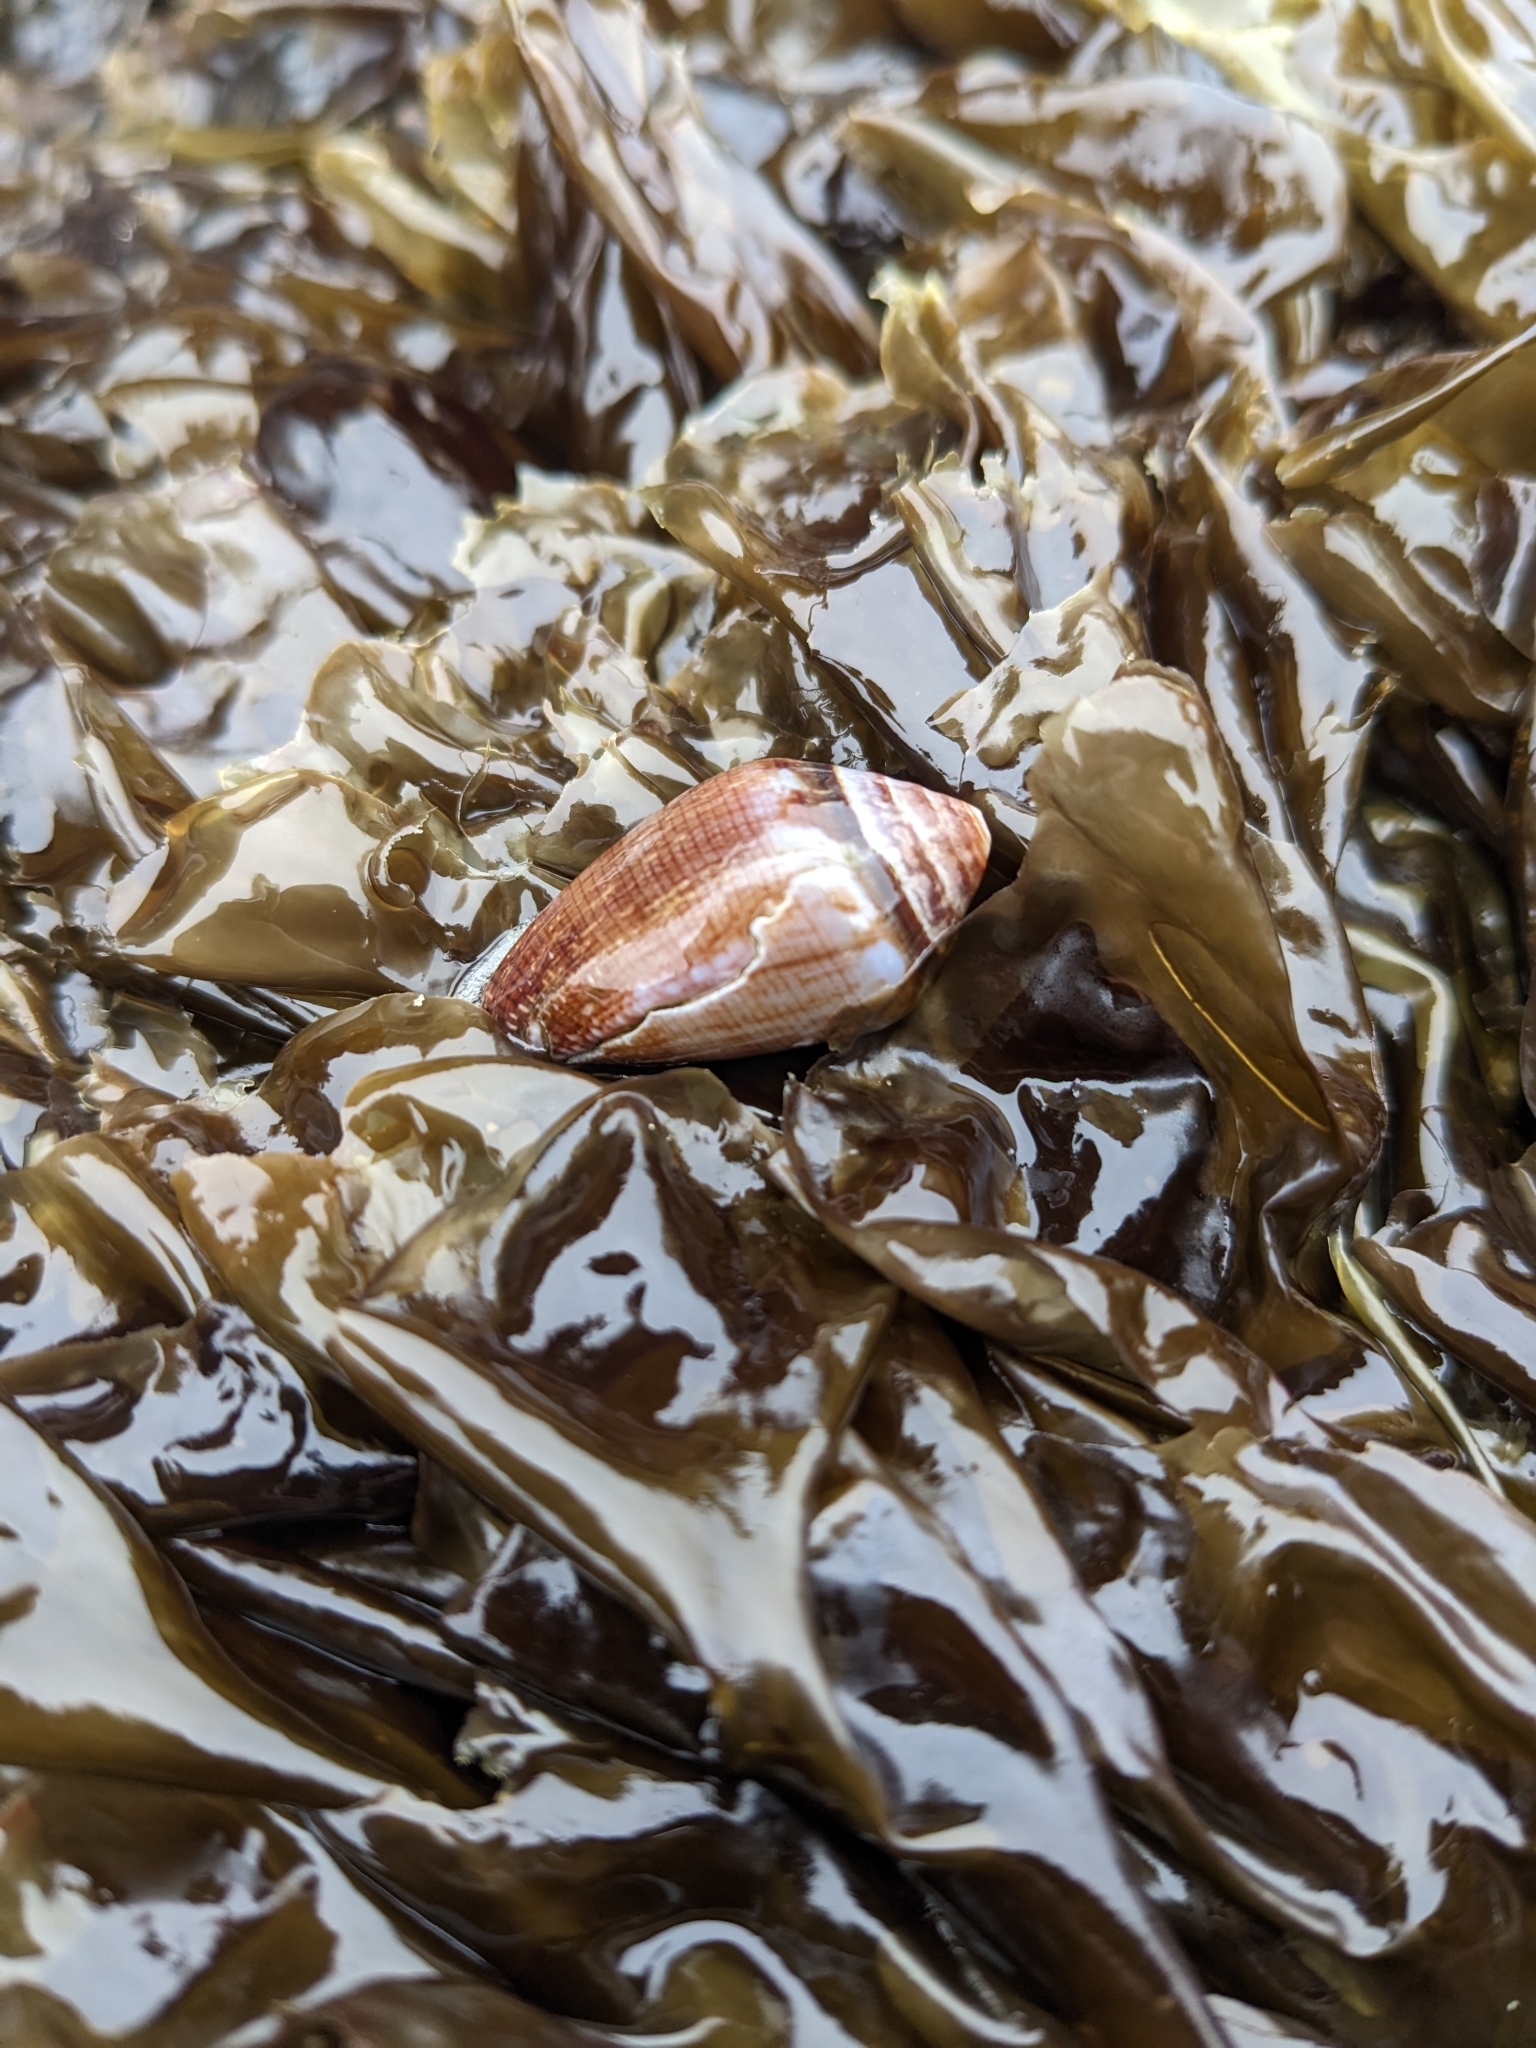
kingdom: Animalia
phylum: Mollusca
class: Gastropoda
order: Neogastropoda
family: Conidae
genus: Californiconus
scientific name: Californiconus californicus
